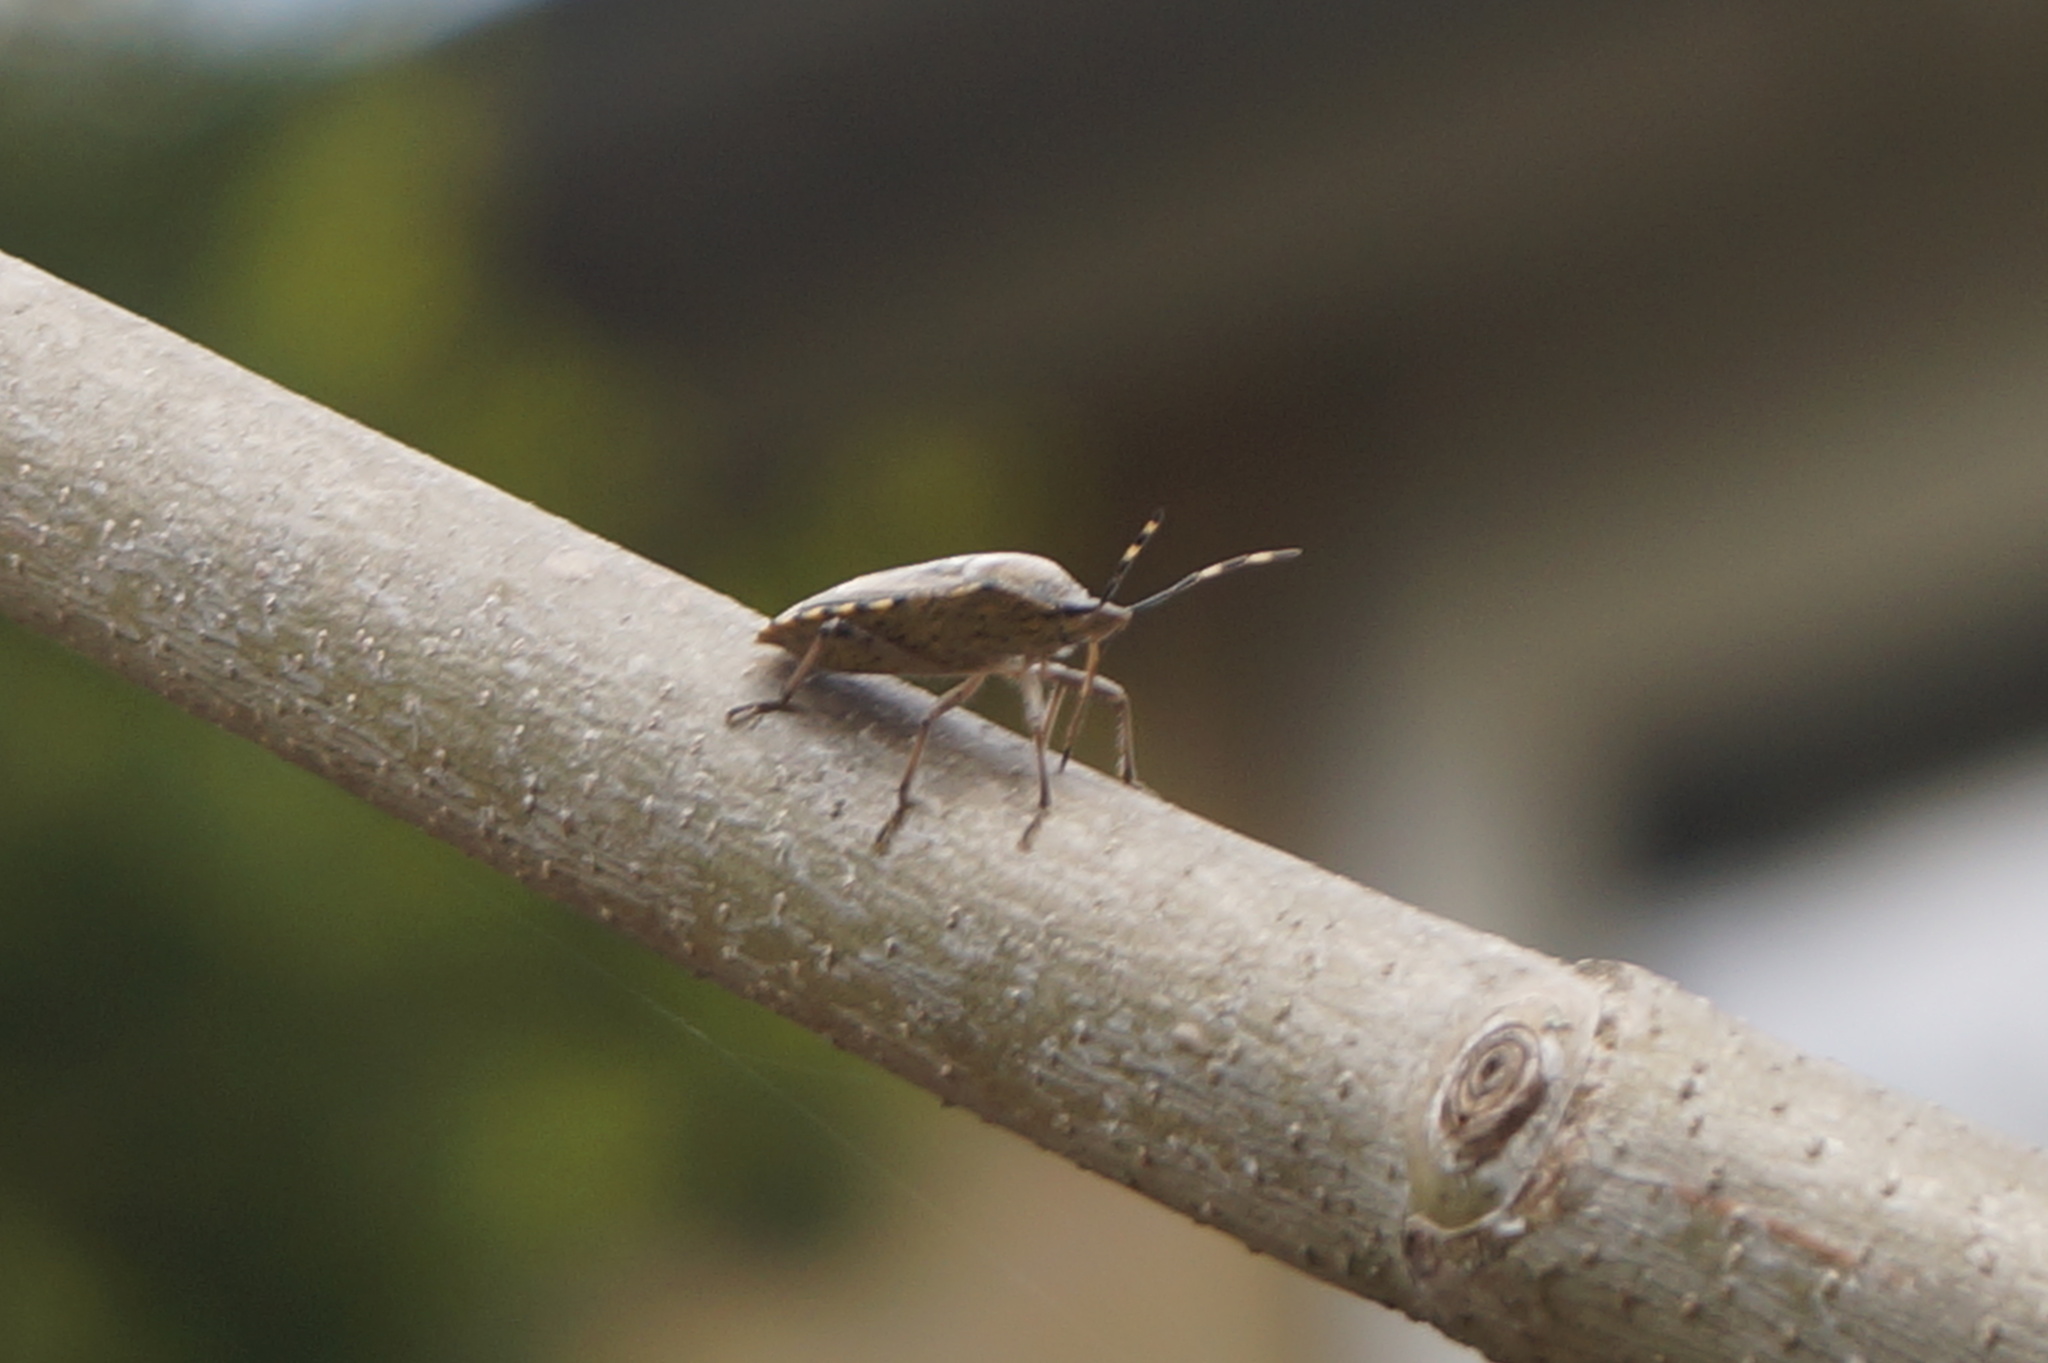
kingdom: Animalia
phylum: Arthropoda
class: Insecta
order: Hemiptera
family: Pentatomidae
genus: Rhaphigaster
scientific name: Rhaphigaster nebulosa
